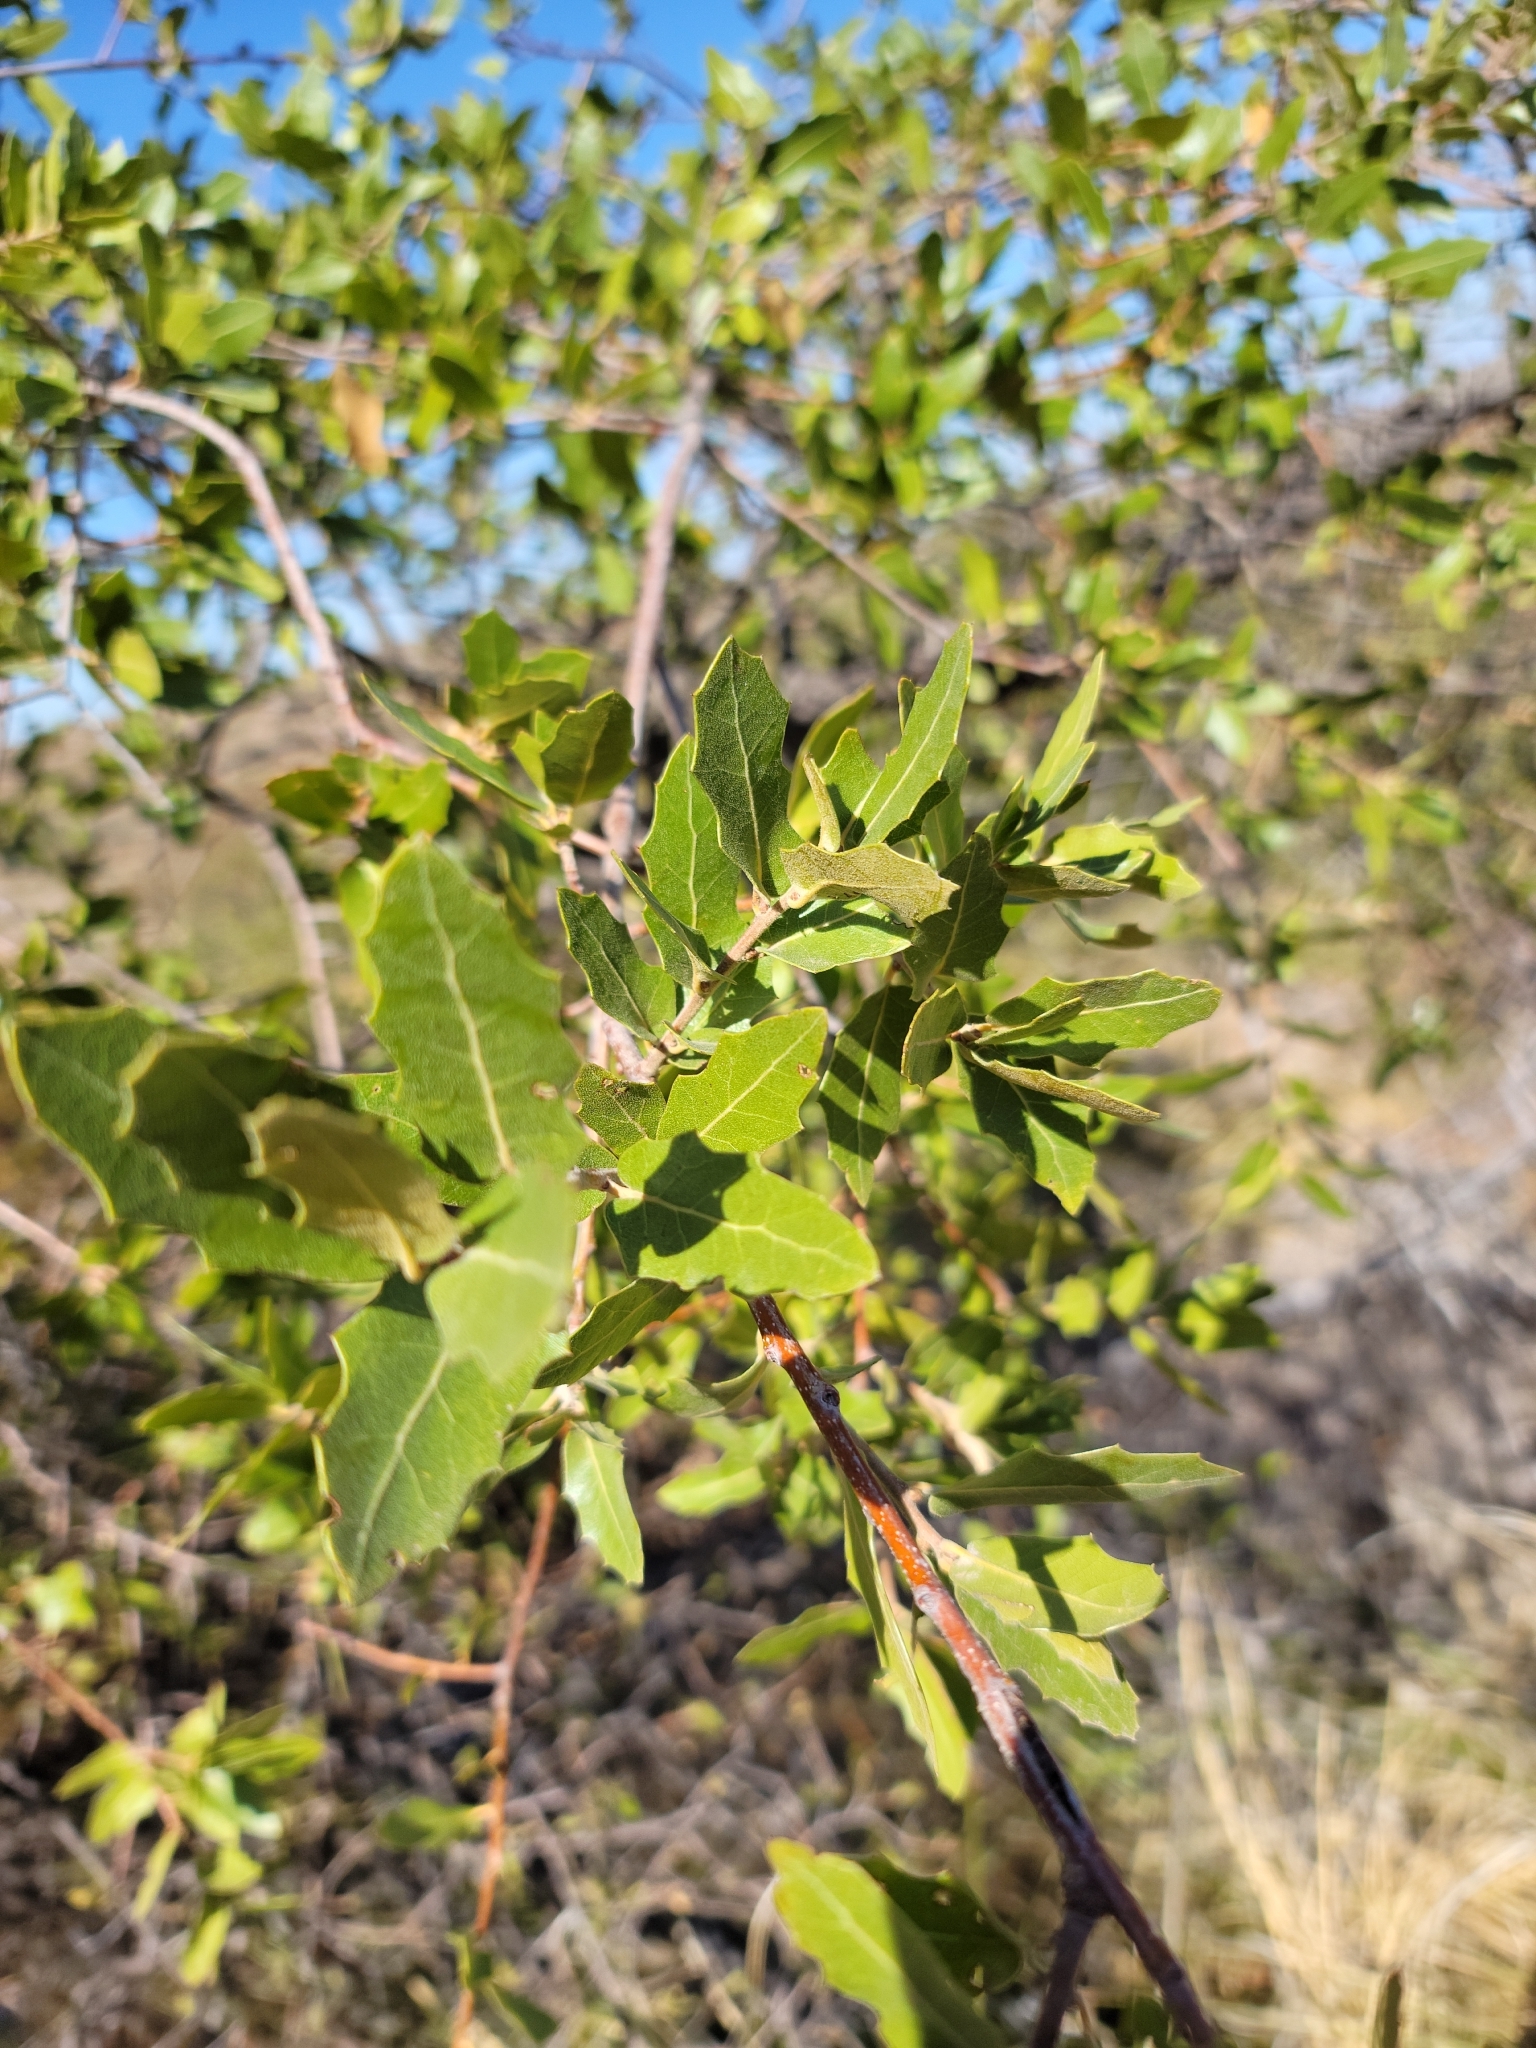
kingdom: Plantae
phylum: Tracheophyta
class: Magnoliopsida
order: Fagales
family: Fagaceae
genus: Quercus
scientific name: Quercus emoryi
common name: Emory oak
